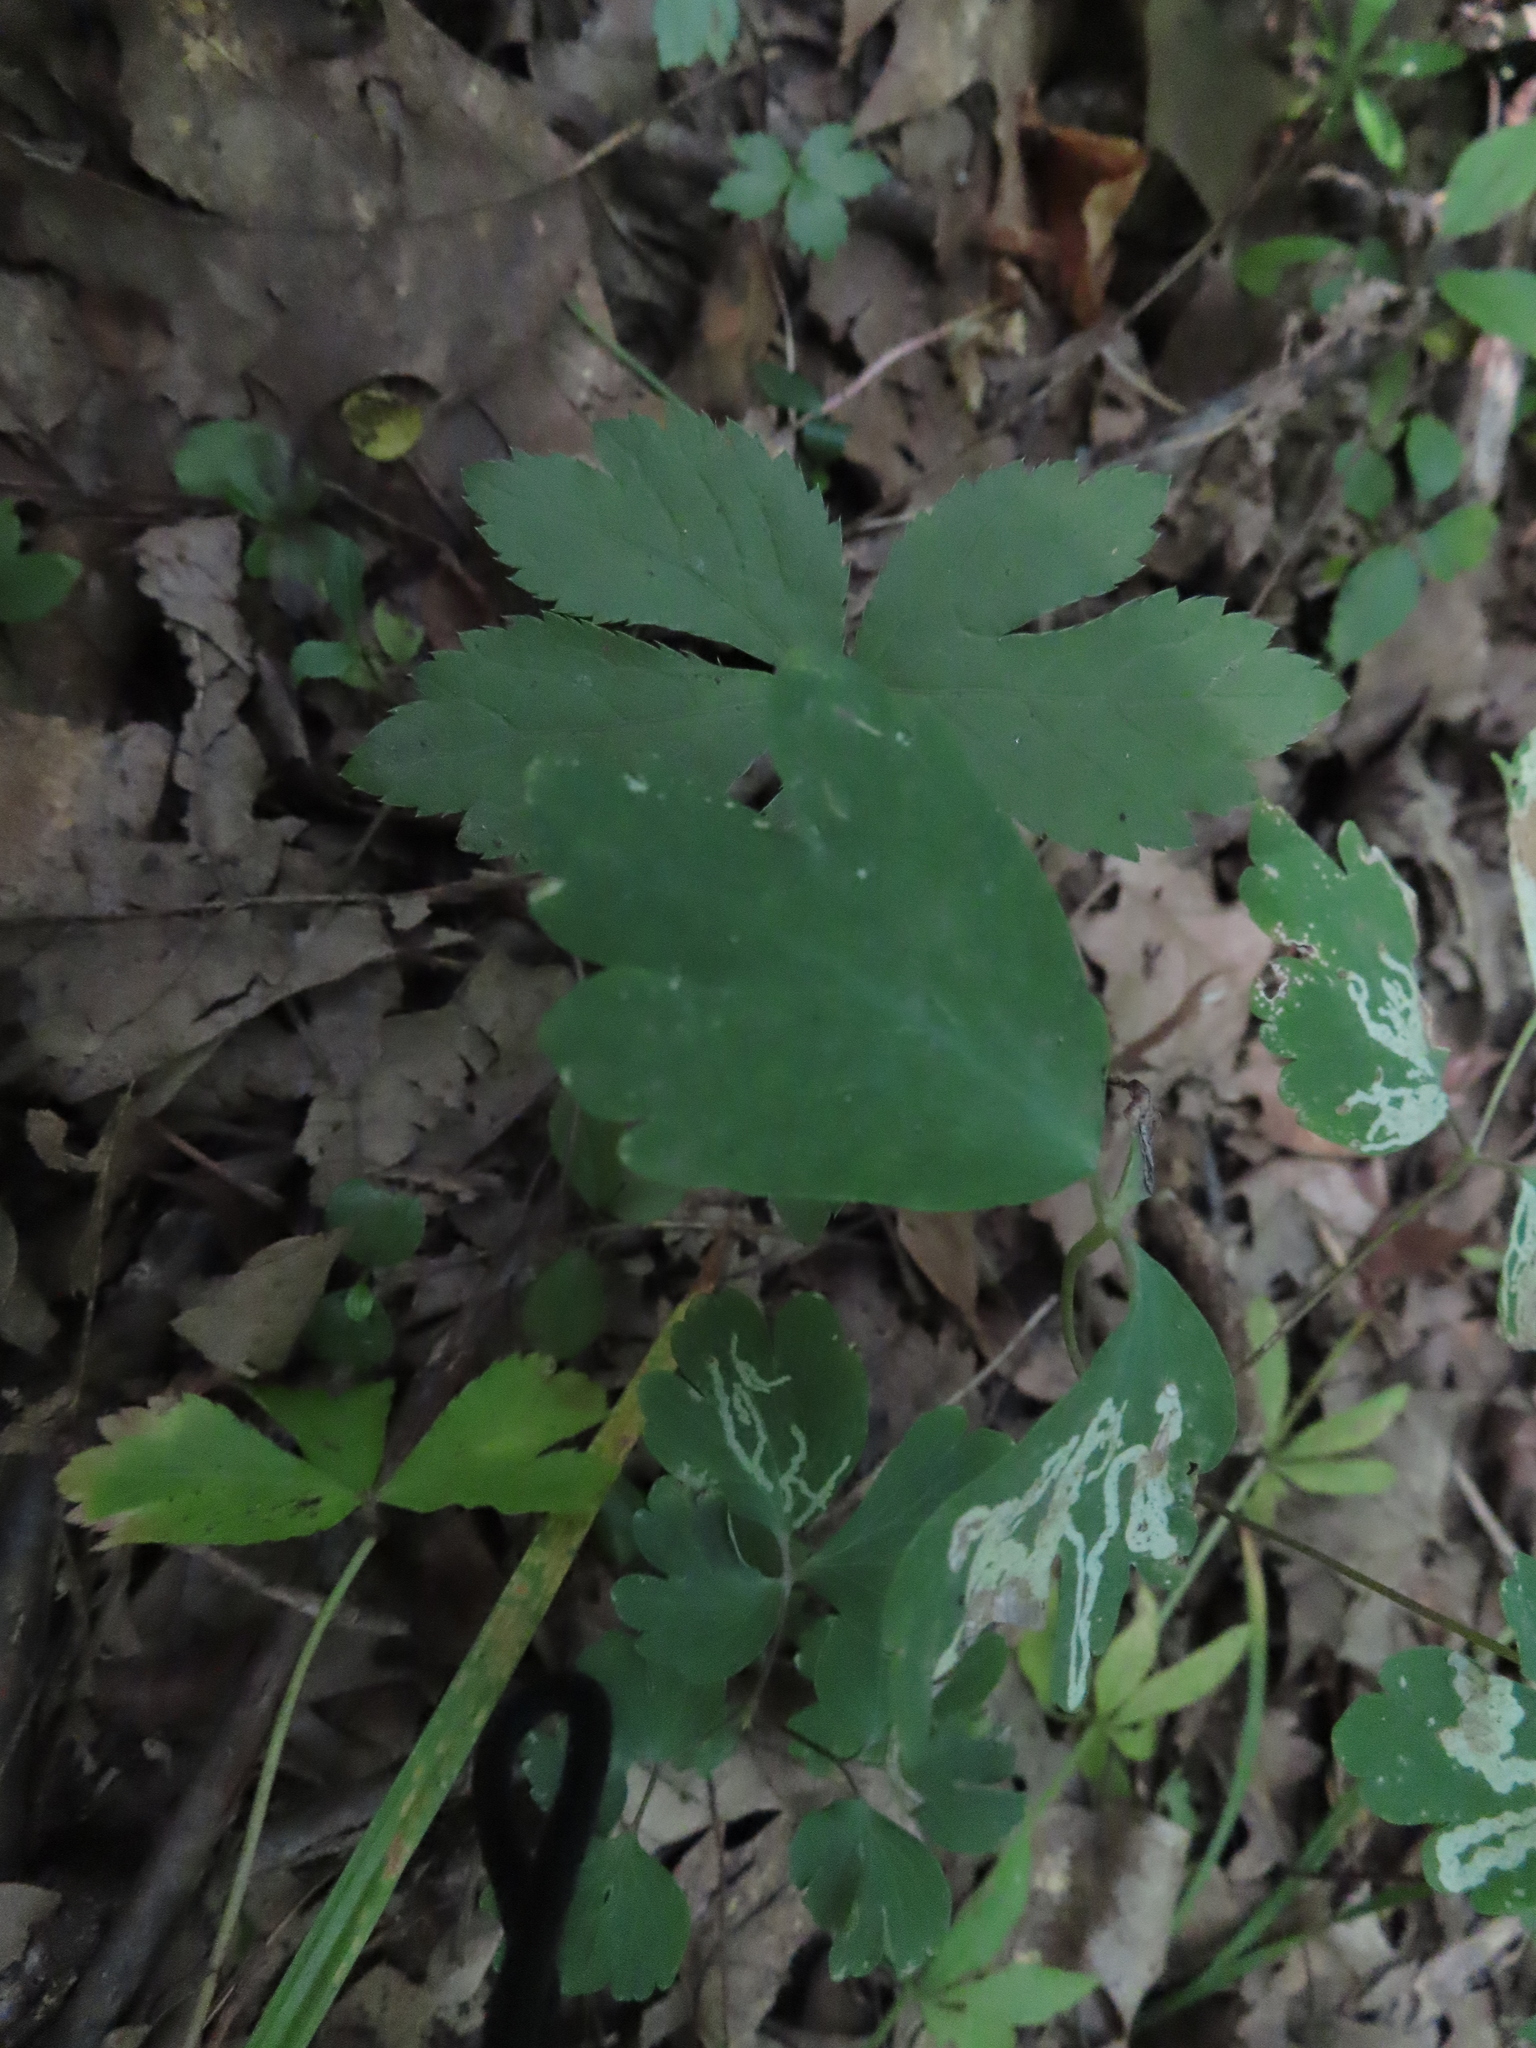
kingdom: Plantae
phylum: Tracheophyta
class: Magnoliopsida
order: Ranunculales
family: Ranunculaceae
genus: Aquilegia
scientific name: Aquilegia canadensis
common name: American columbine
